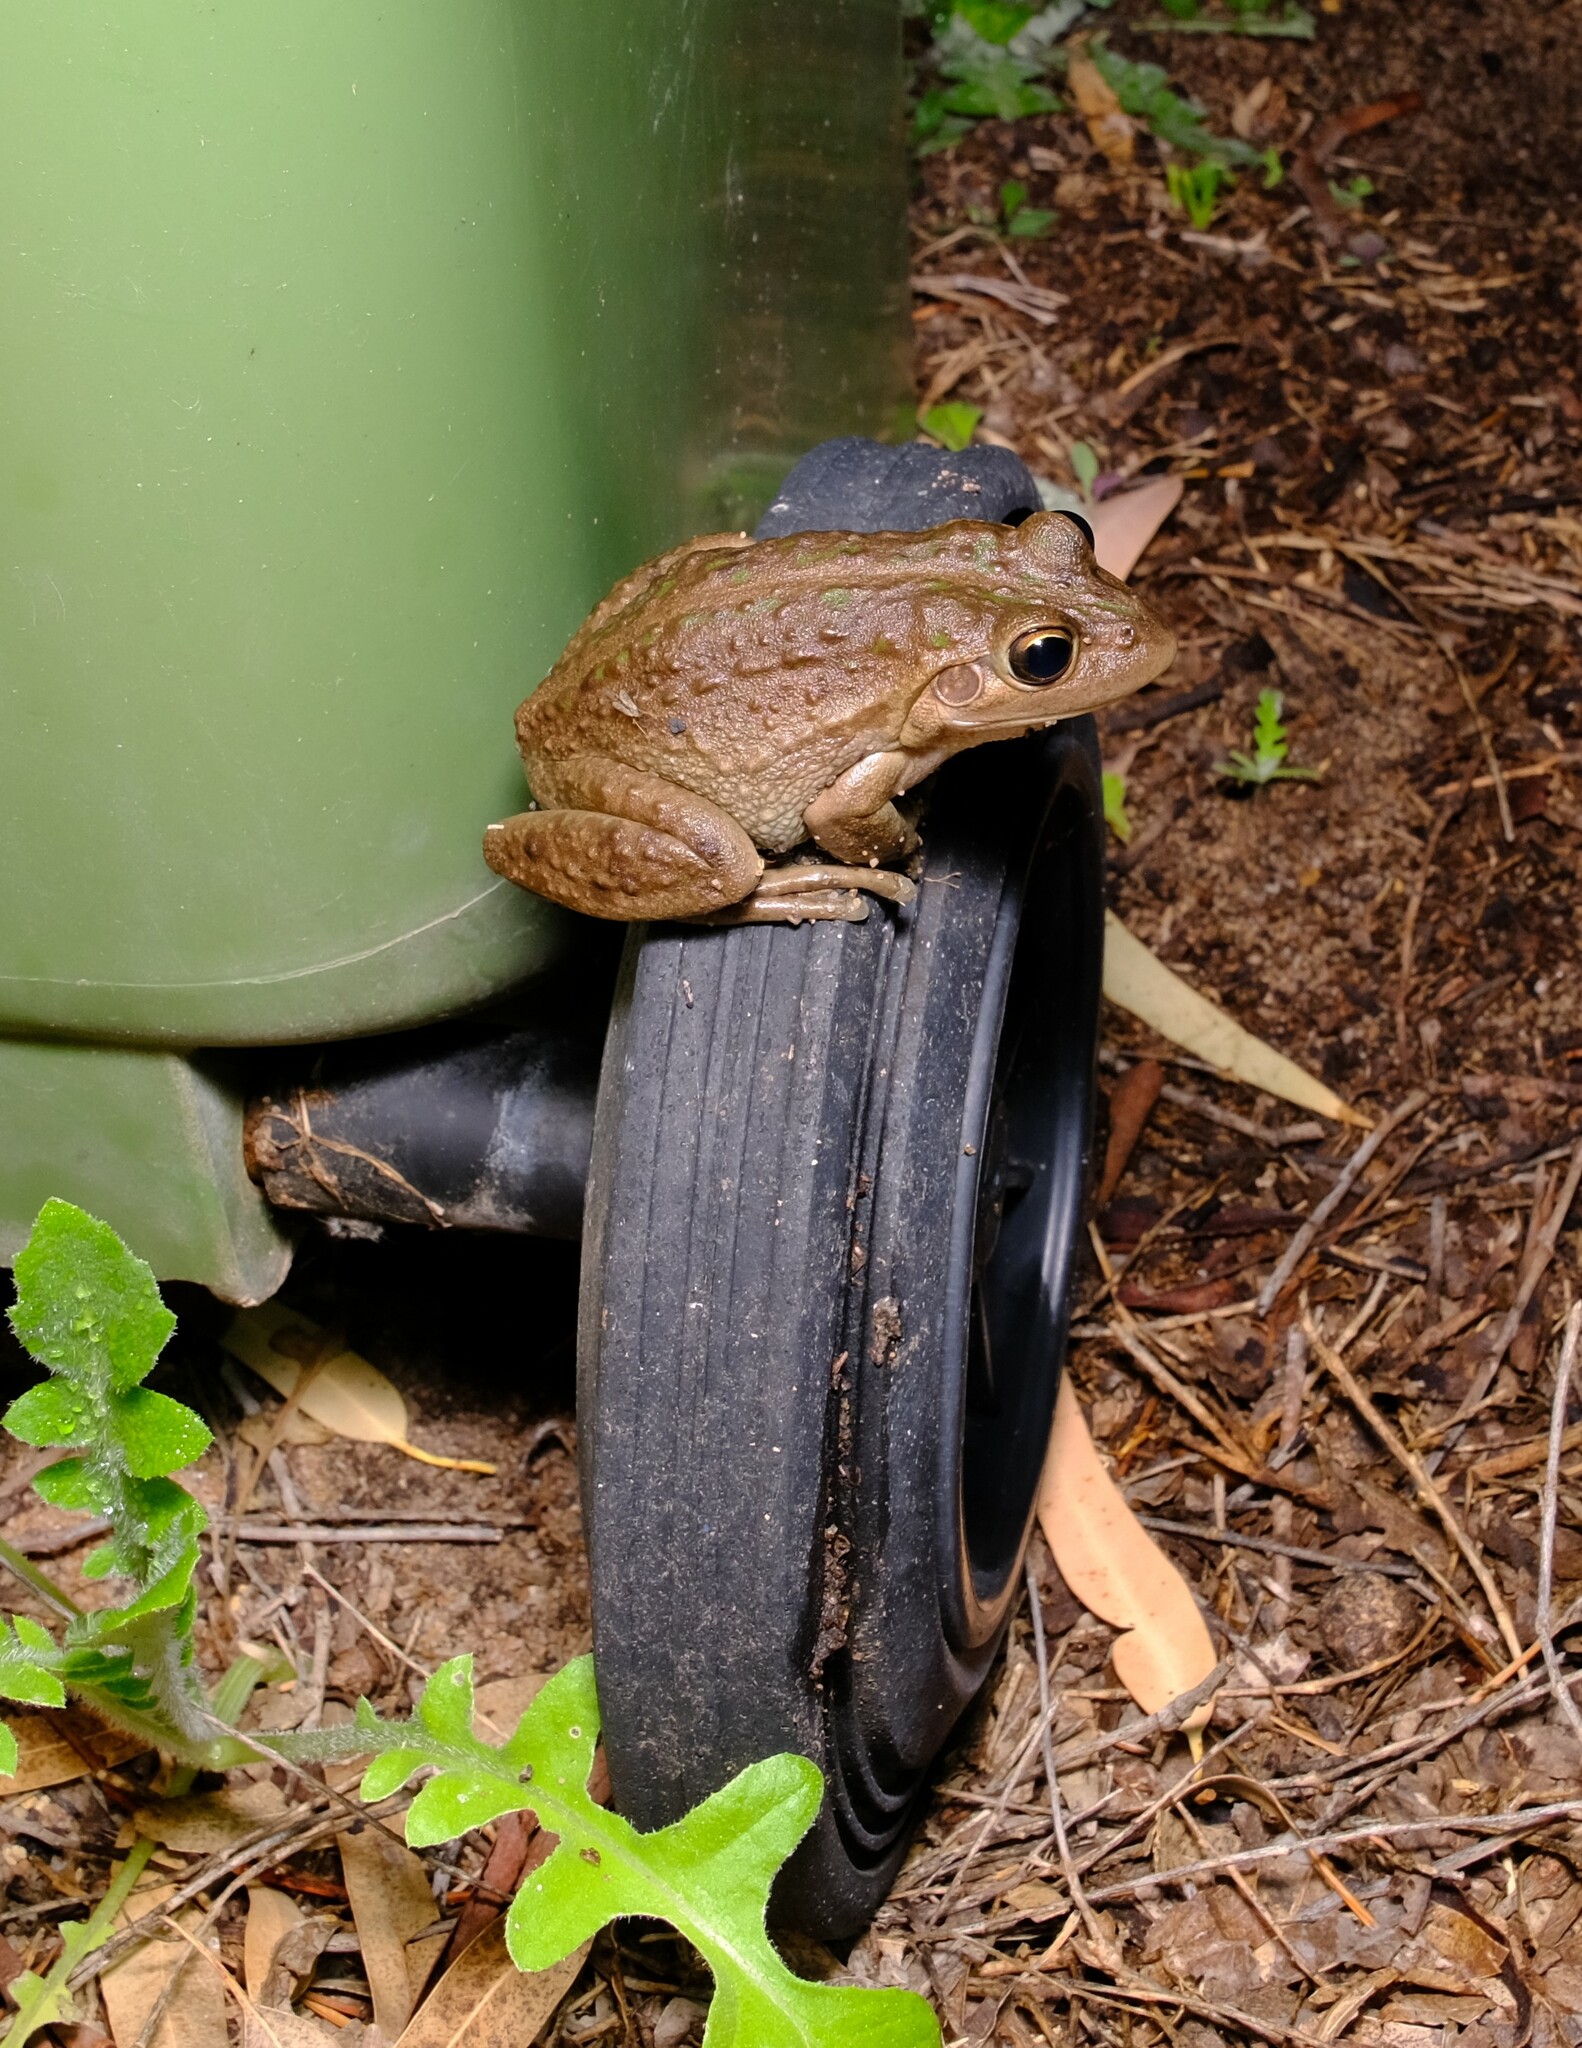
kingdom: Animalia
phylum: Chordata
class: Amphibia
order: Anura
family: Pelodryadidae
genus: Ranoidea
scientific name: Ranoidea moorei
